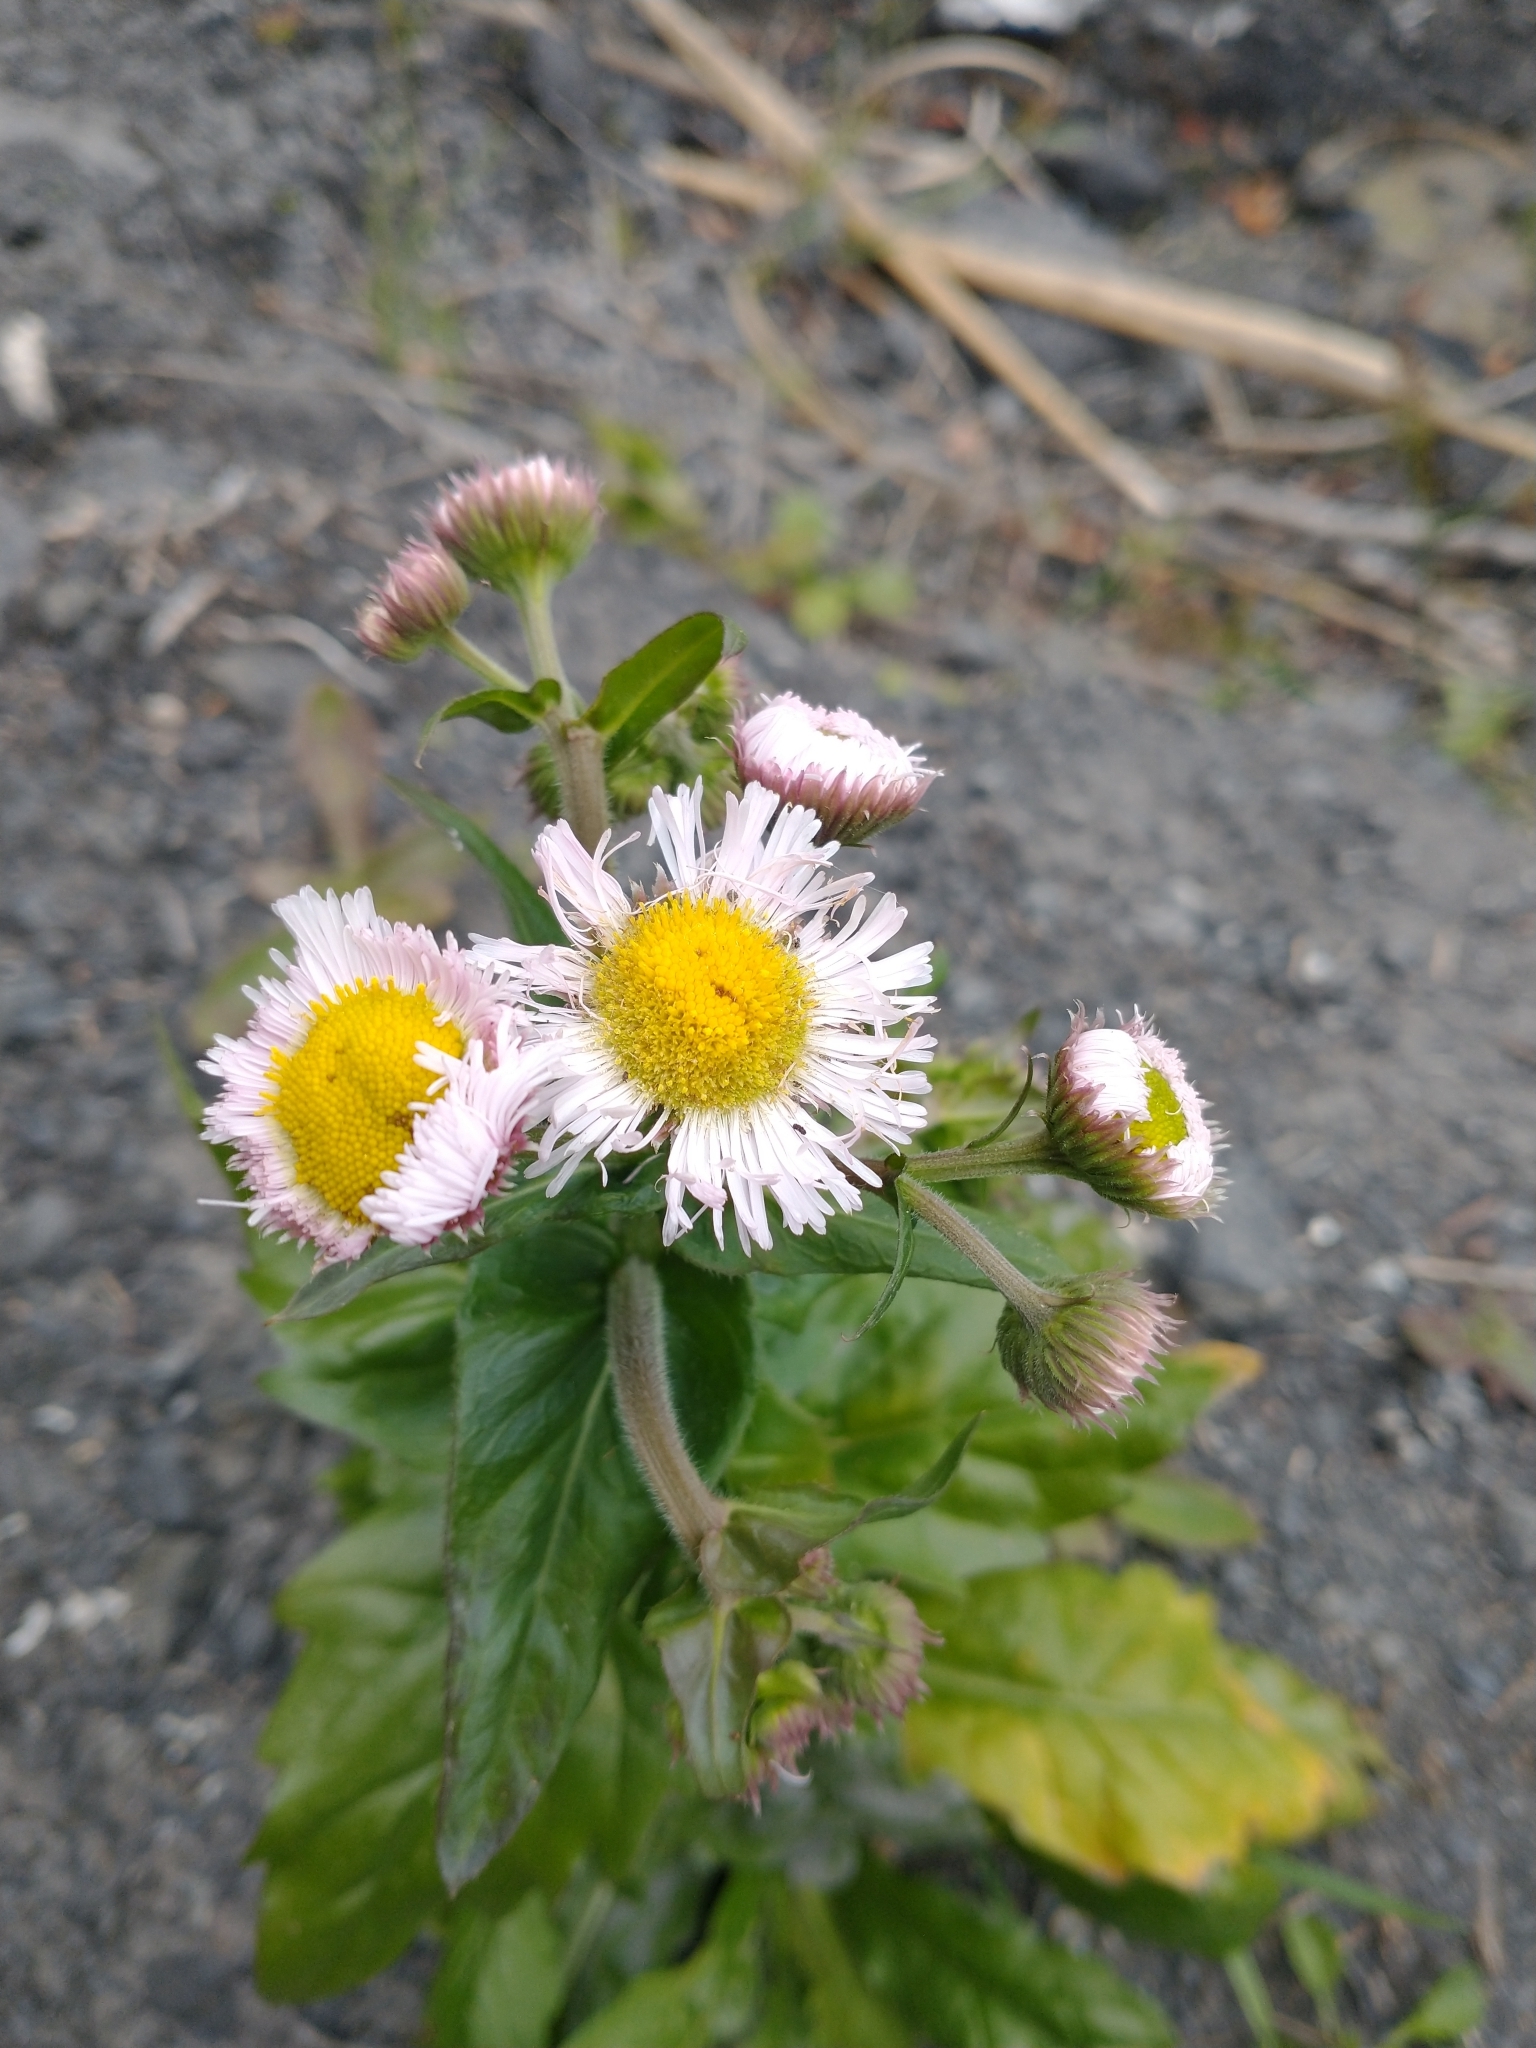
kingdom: Plantae
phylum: Tracheophyta
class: Magnoliopsida
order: Asterales
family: Asteraceae
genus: Erigeron
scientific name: Erigeron philadelphicus
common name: Robin's-plantain
